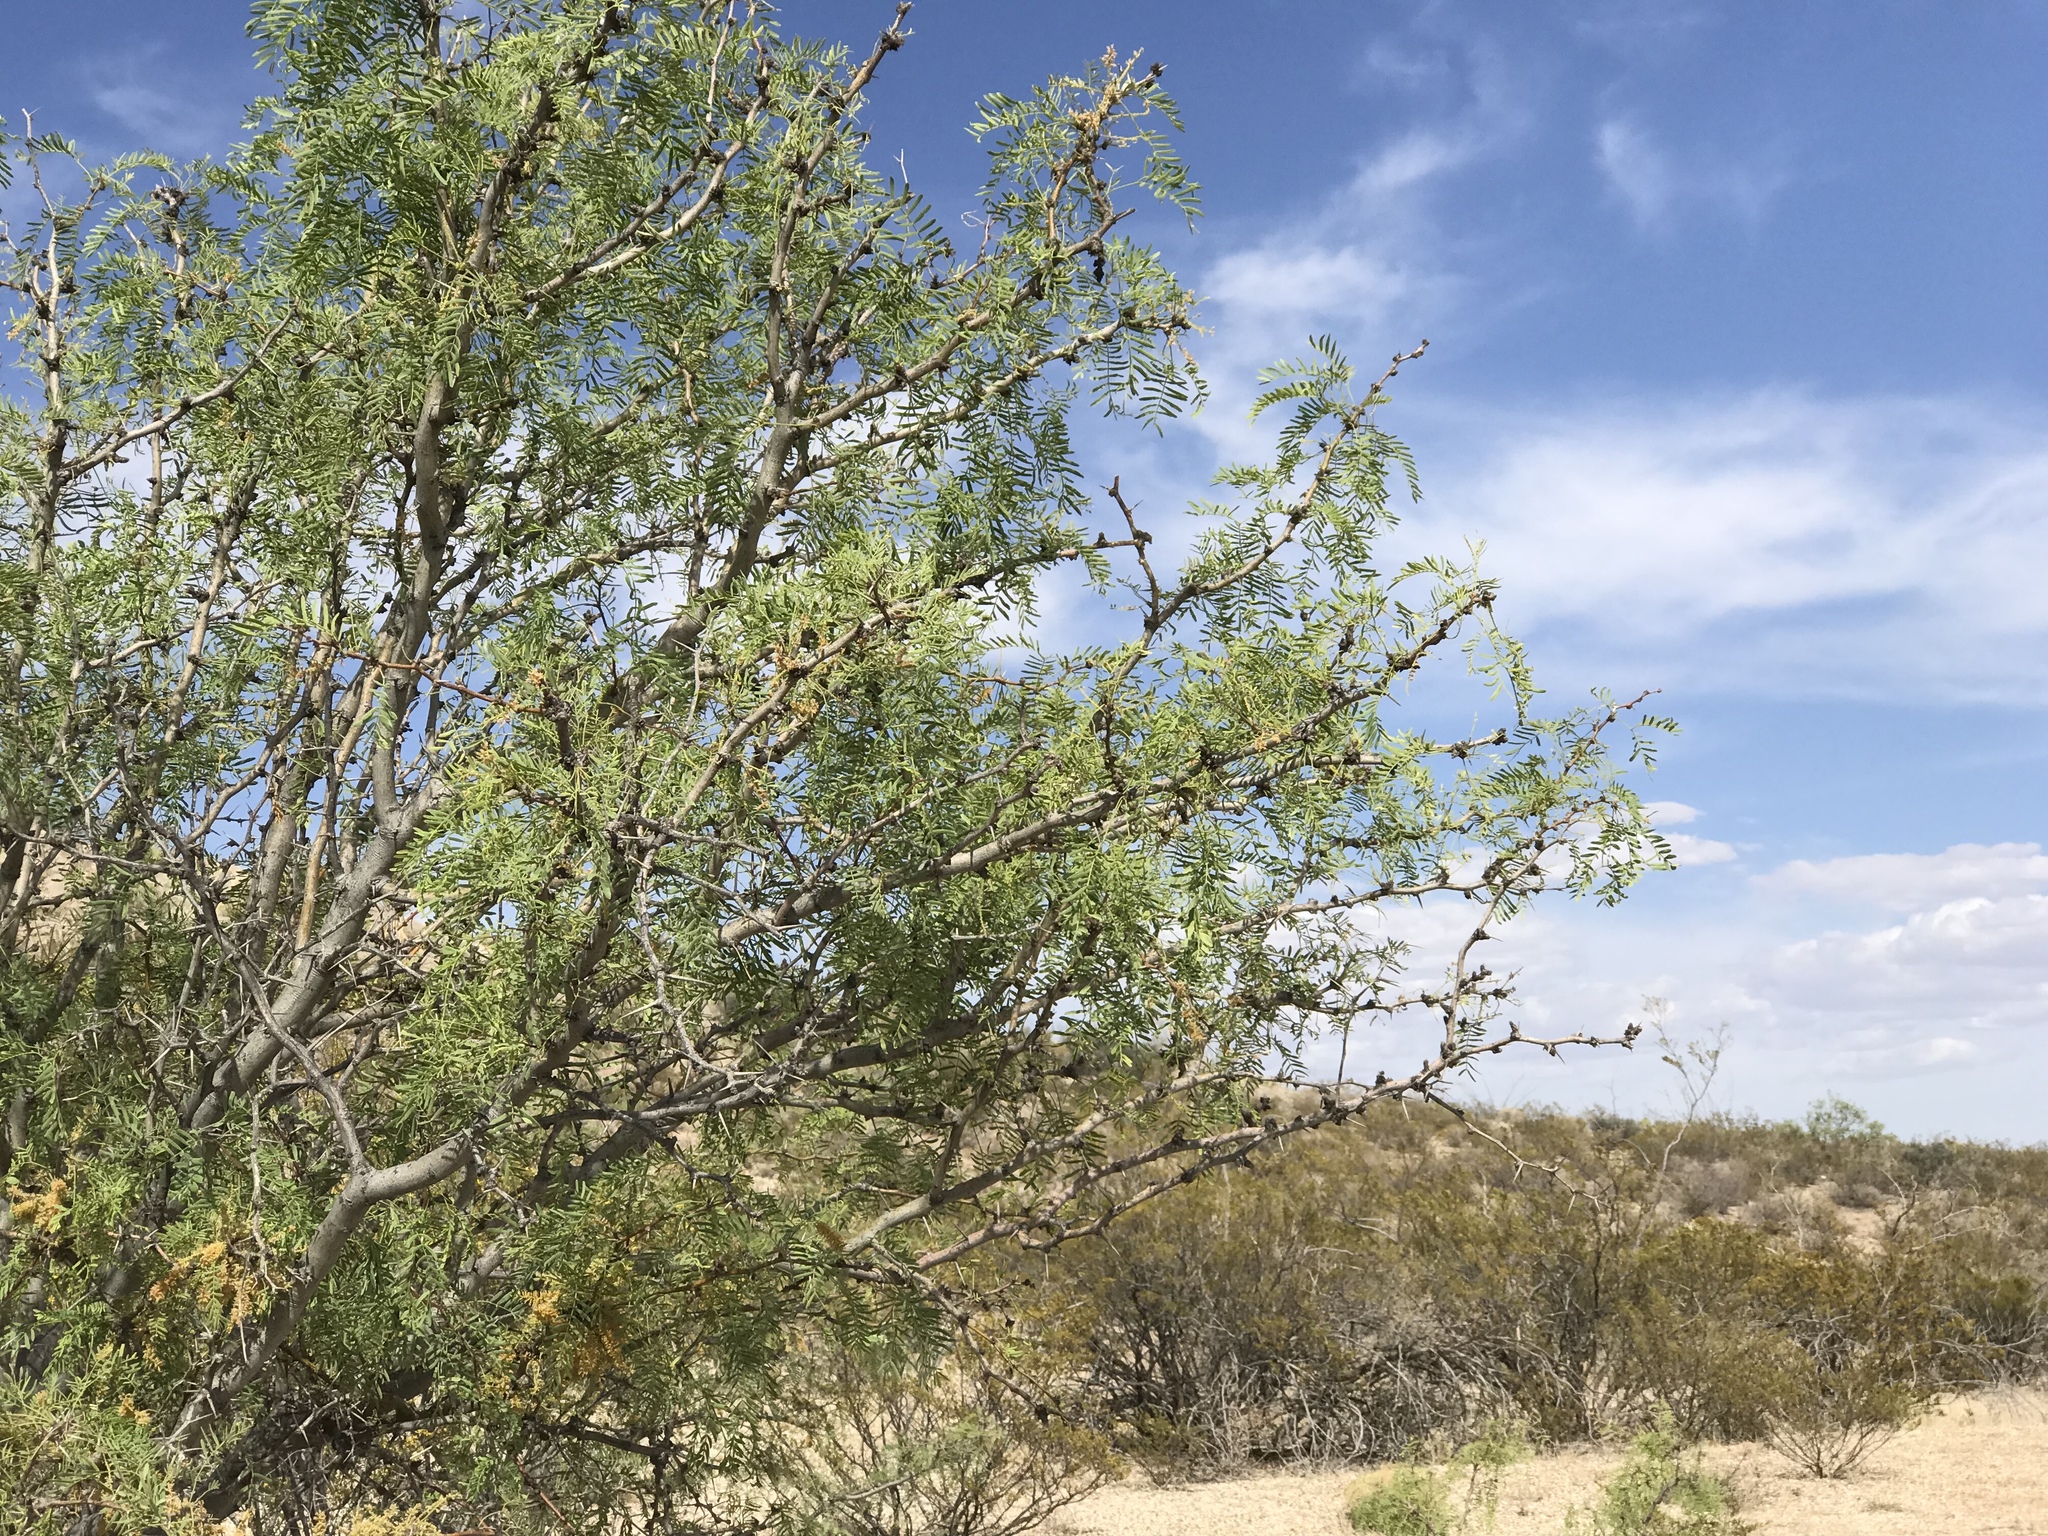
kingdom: Plantae
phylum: Tracheophyta
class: Magnoliopsida
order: Fabales
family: Fabaceae
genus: Prosopis
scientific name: Prosopis glandulosa
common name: Honey mesquite
